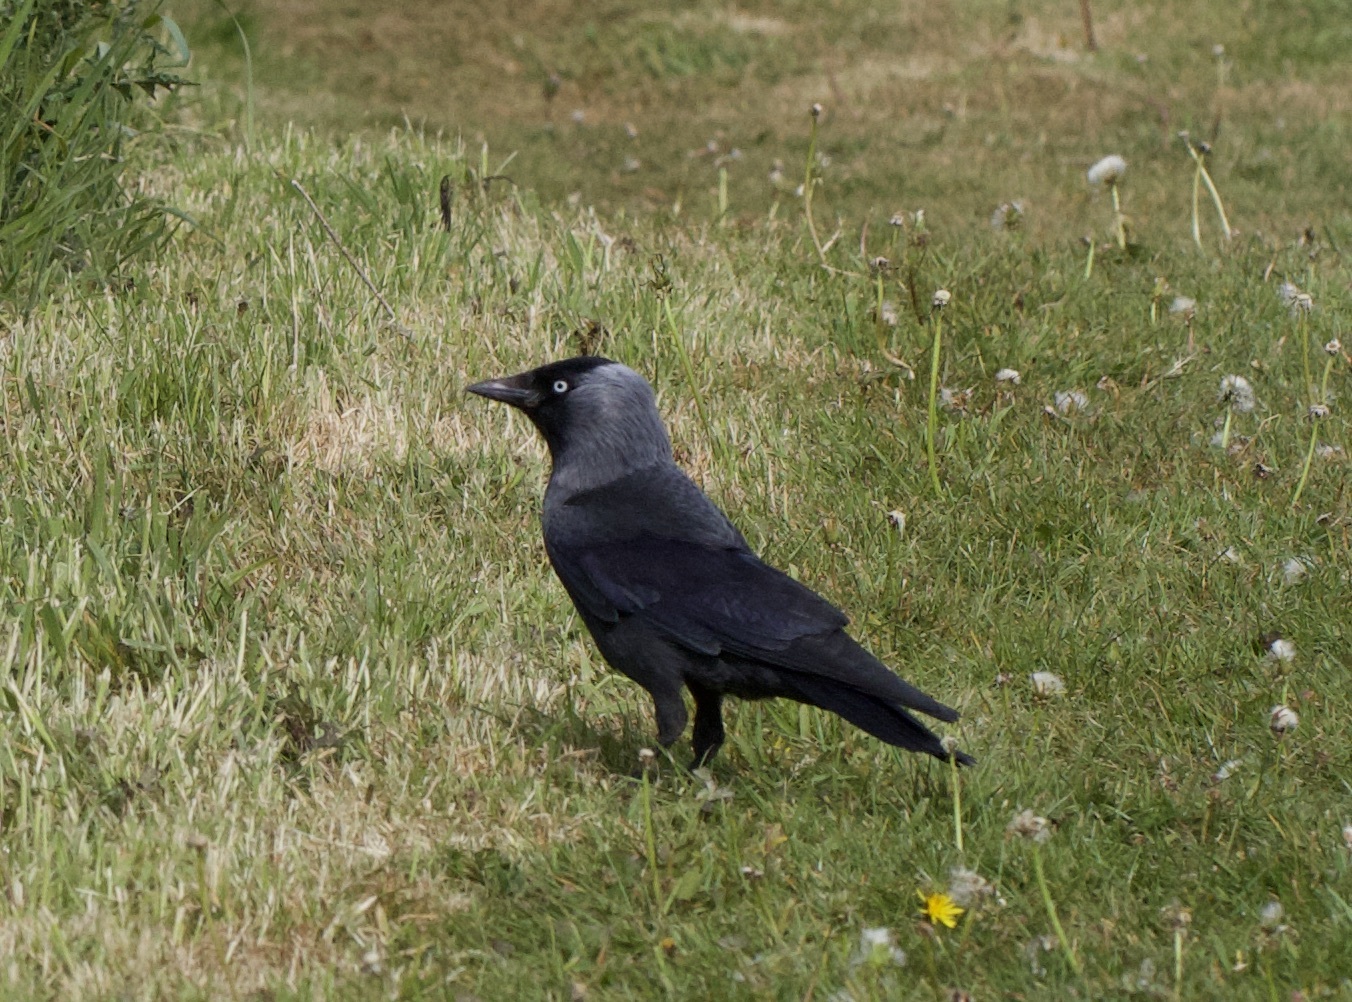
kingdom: Animalia
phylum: Chordata
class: Aves
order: Passeriformes
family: Corvidae
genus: Coloeus
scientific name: Coloeus monedula
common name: Western jackdaw
